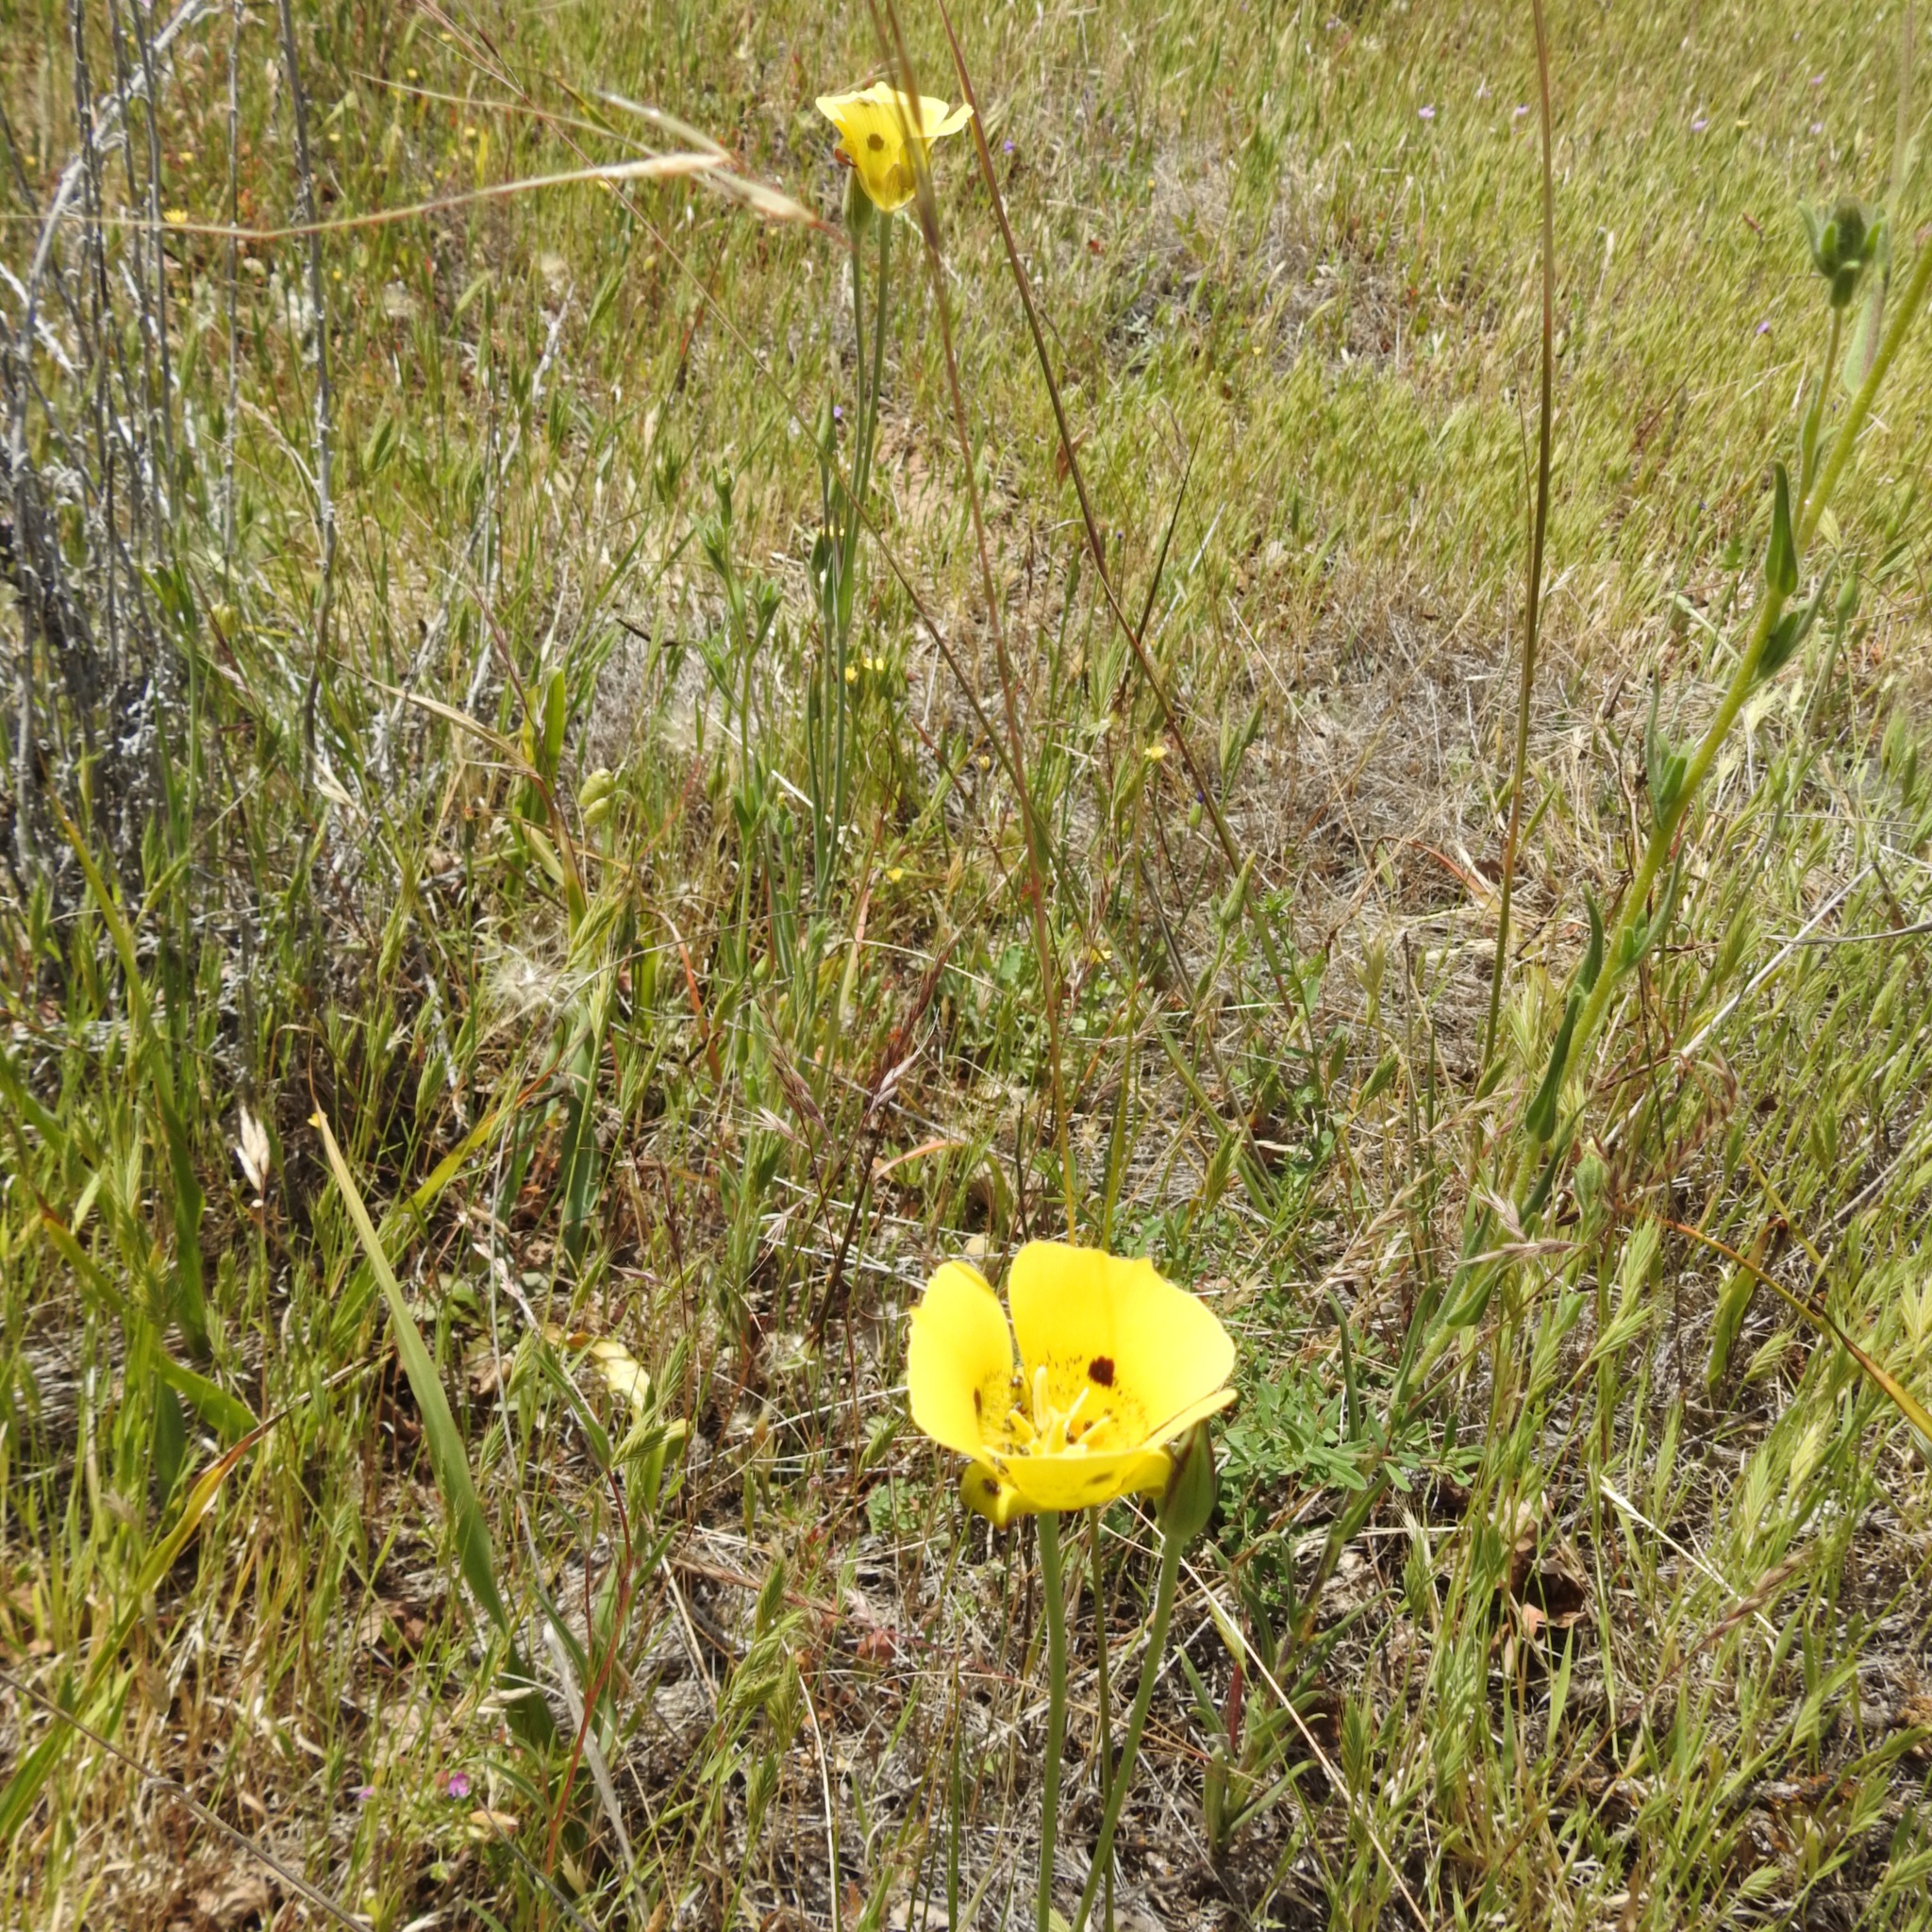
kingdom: Plantae
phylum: Tracheophyta
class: Liliopsida
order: Liliales
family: Liliaceae
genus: Calochortus
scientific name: Calochortus luteus
